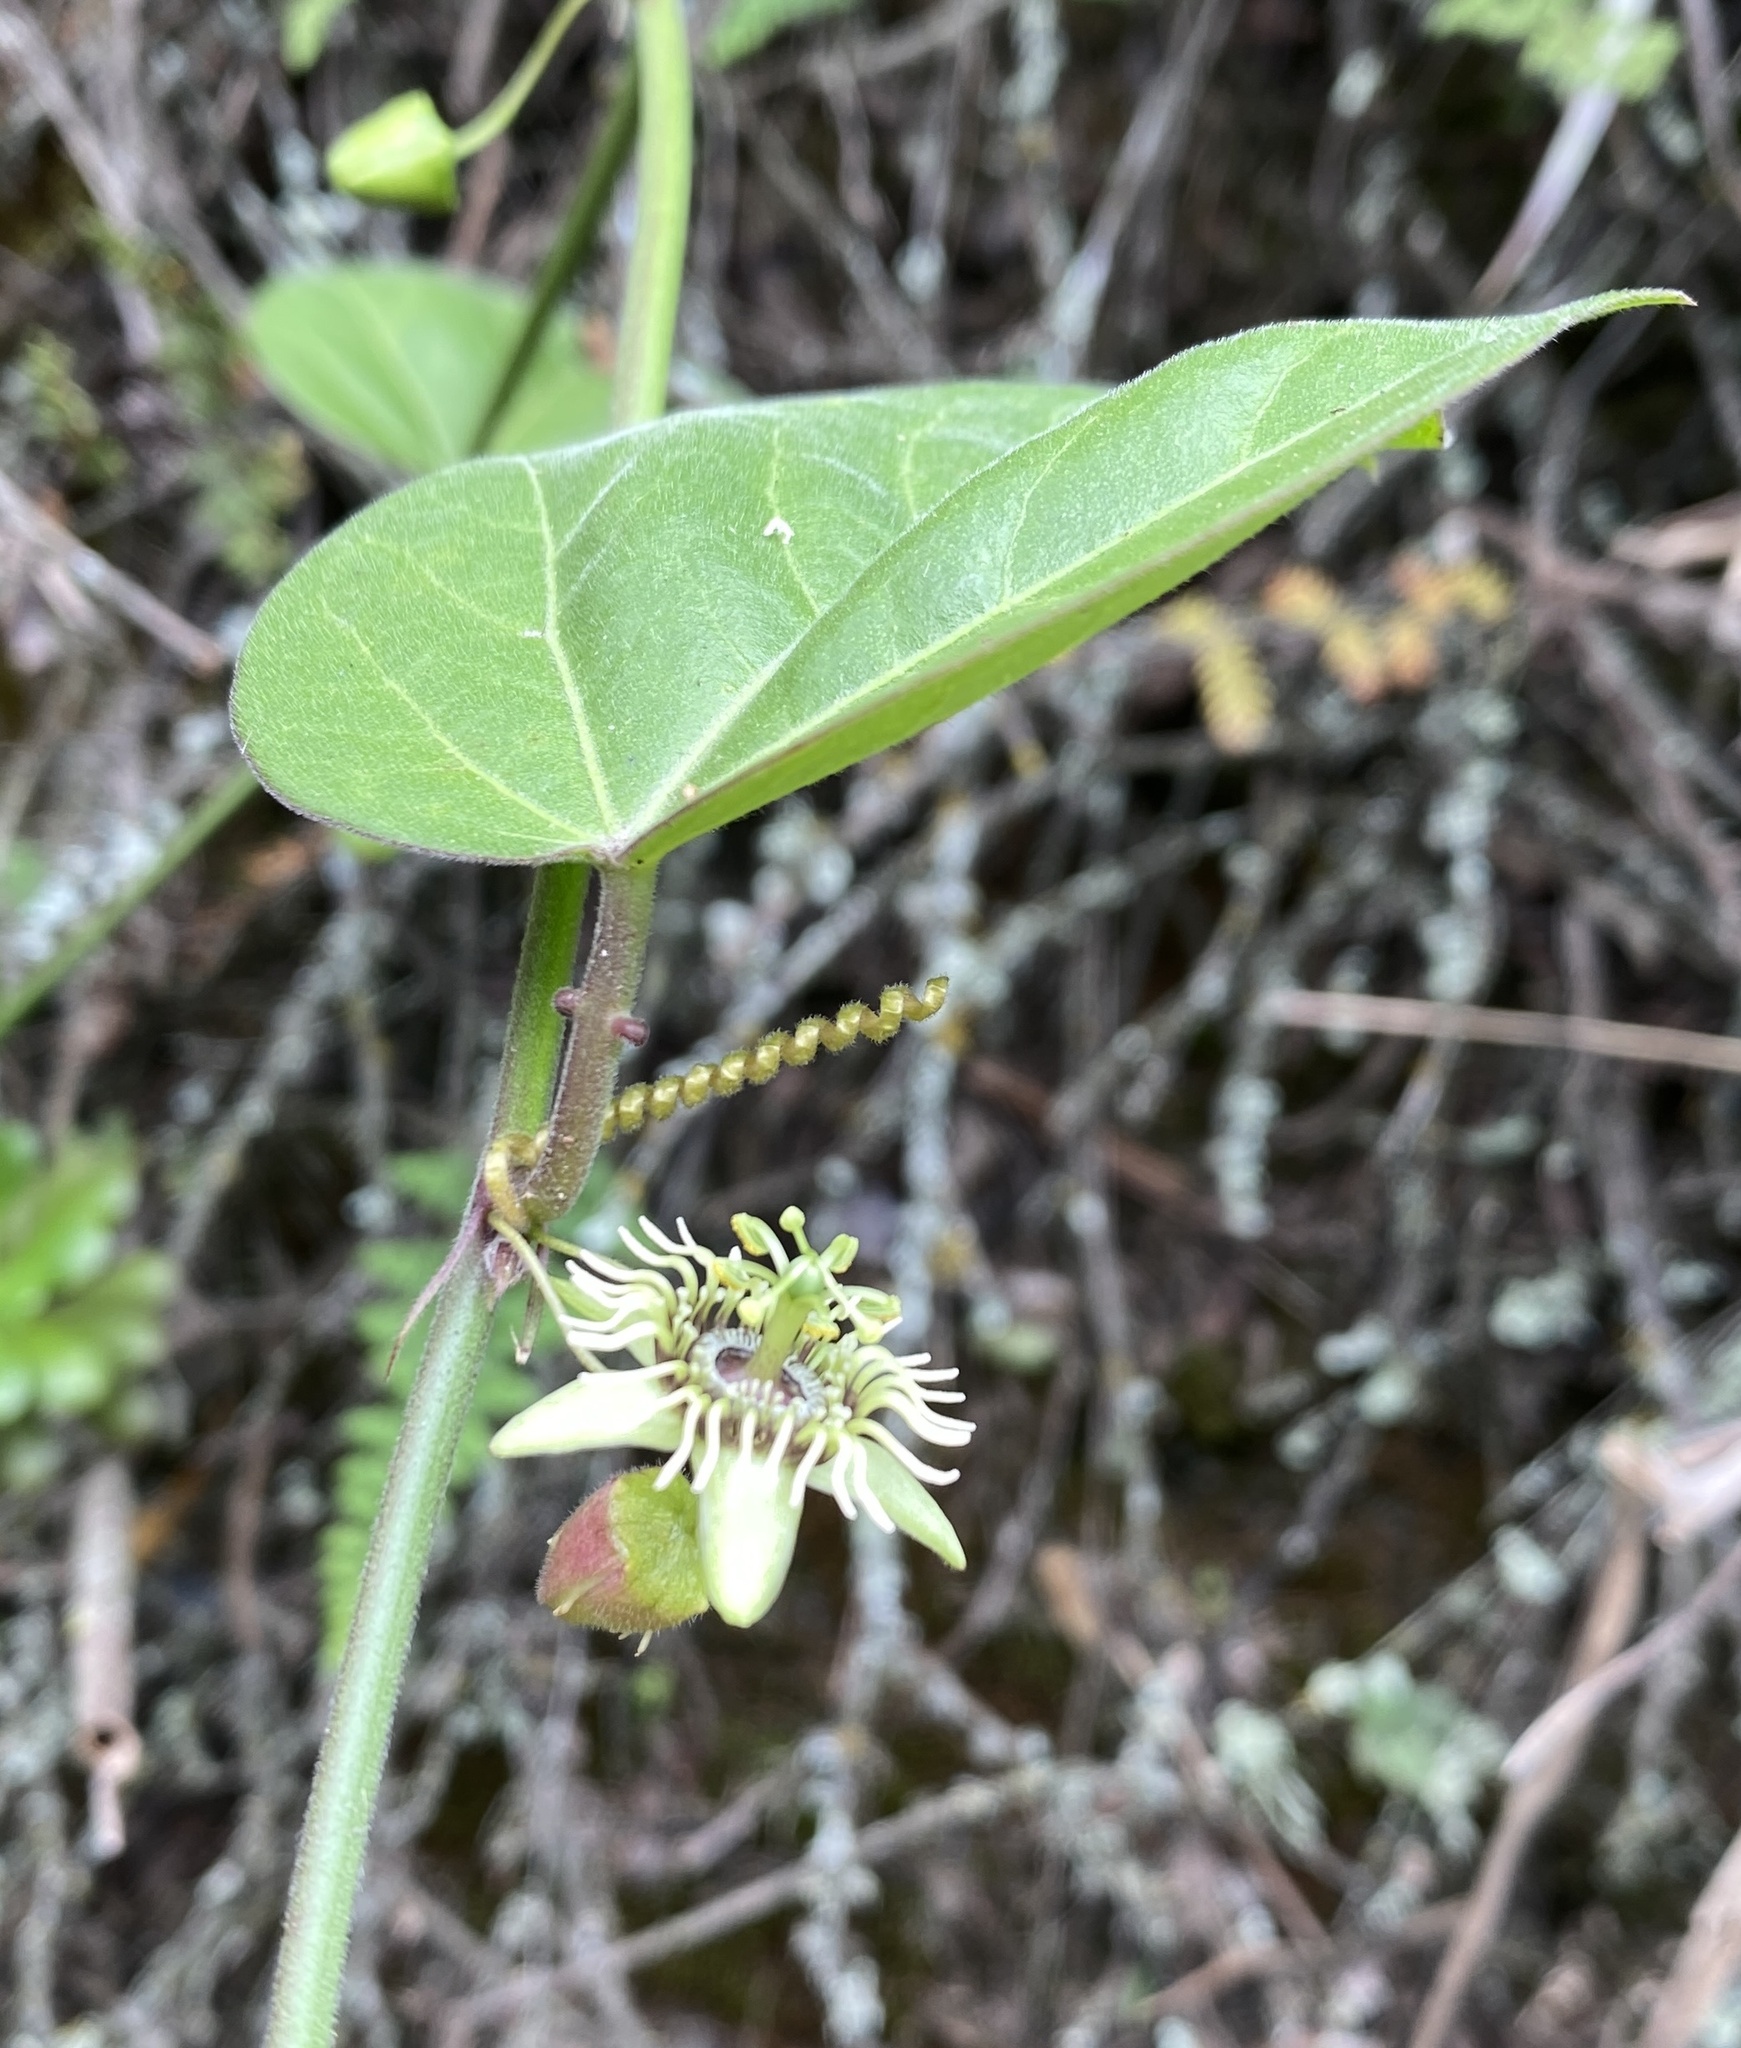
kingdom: Plantae
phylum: Tracheophyta
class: Magnoliopsida
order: Malpighiales
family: Passifloraceae
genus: Passiflora
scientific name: Passiflora suberosa
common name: Wild passionfruit
